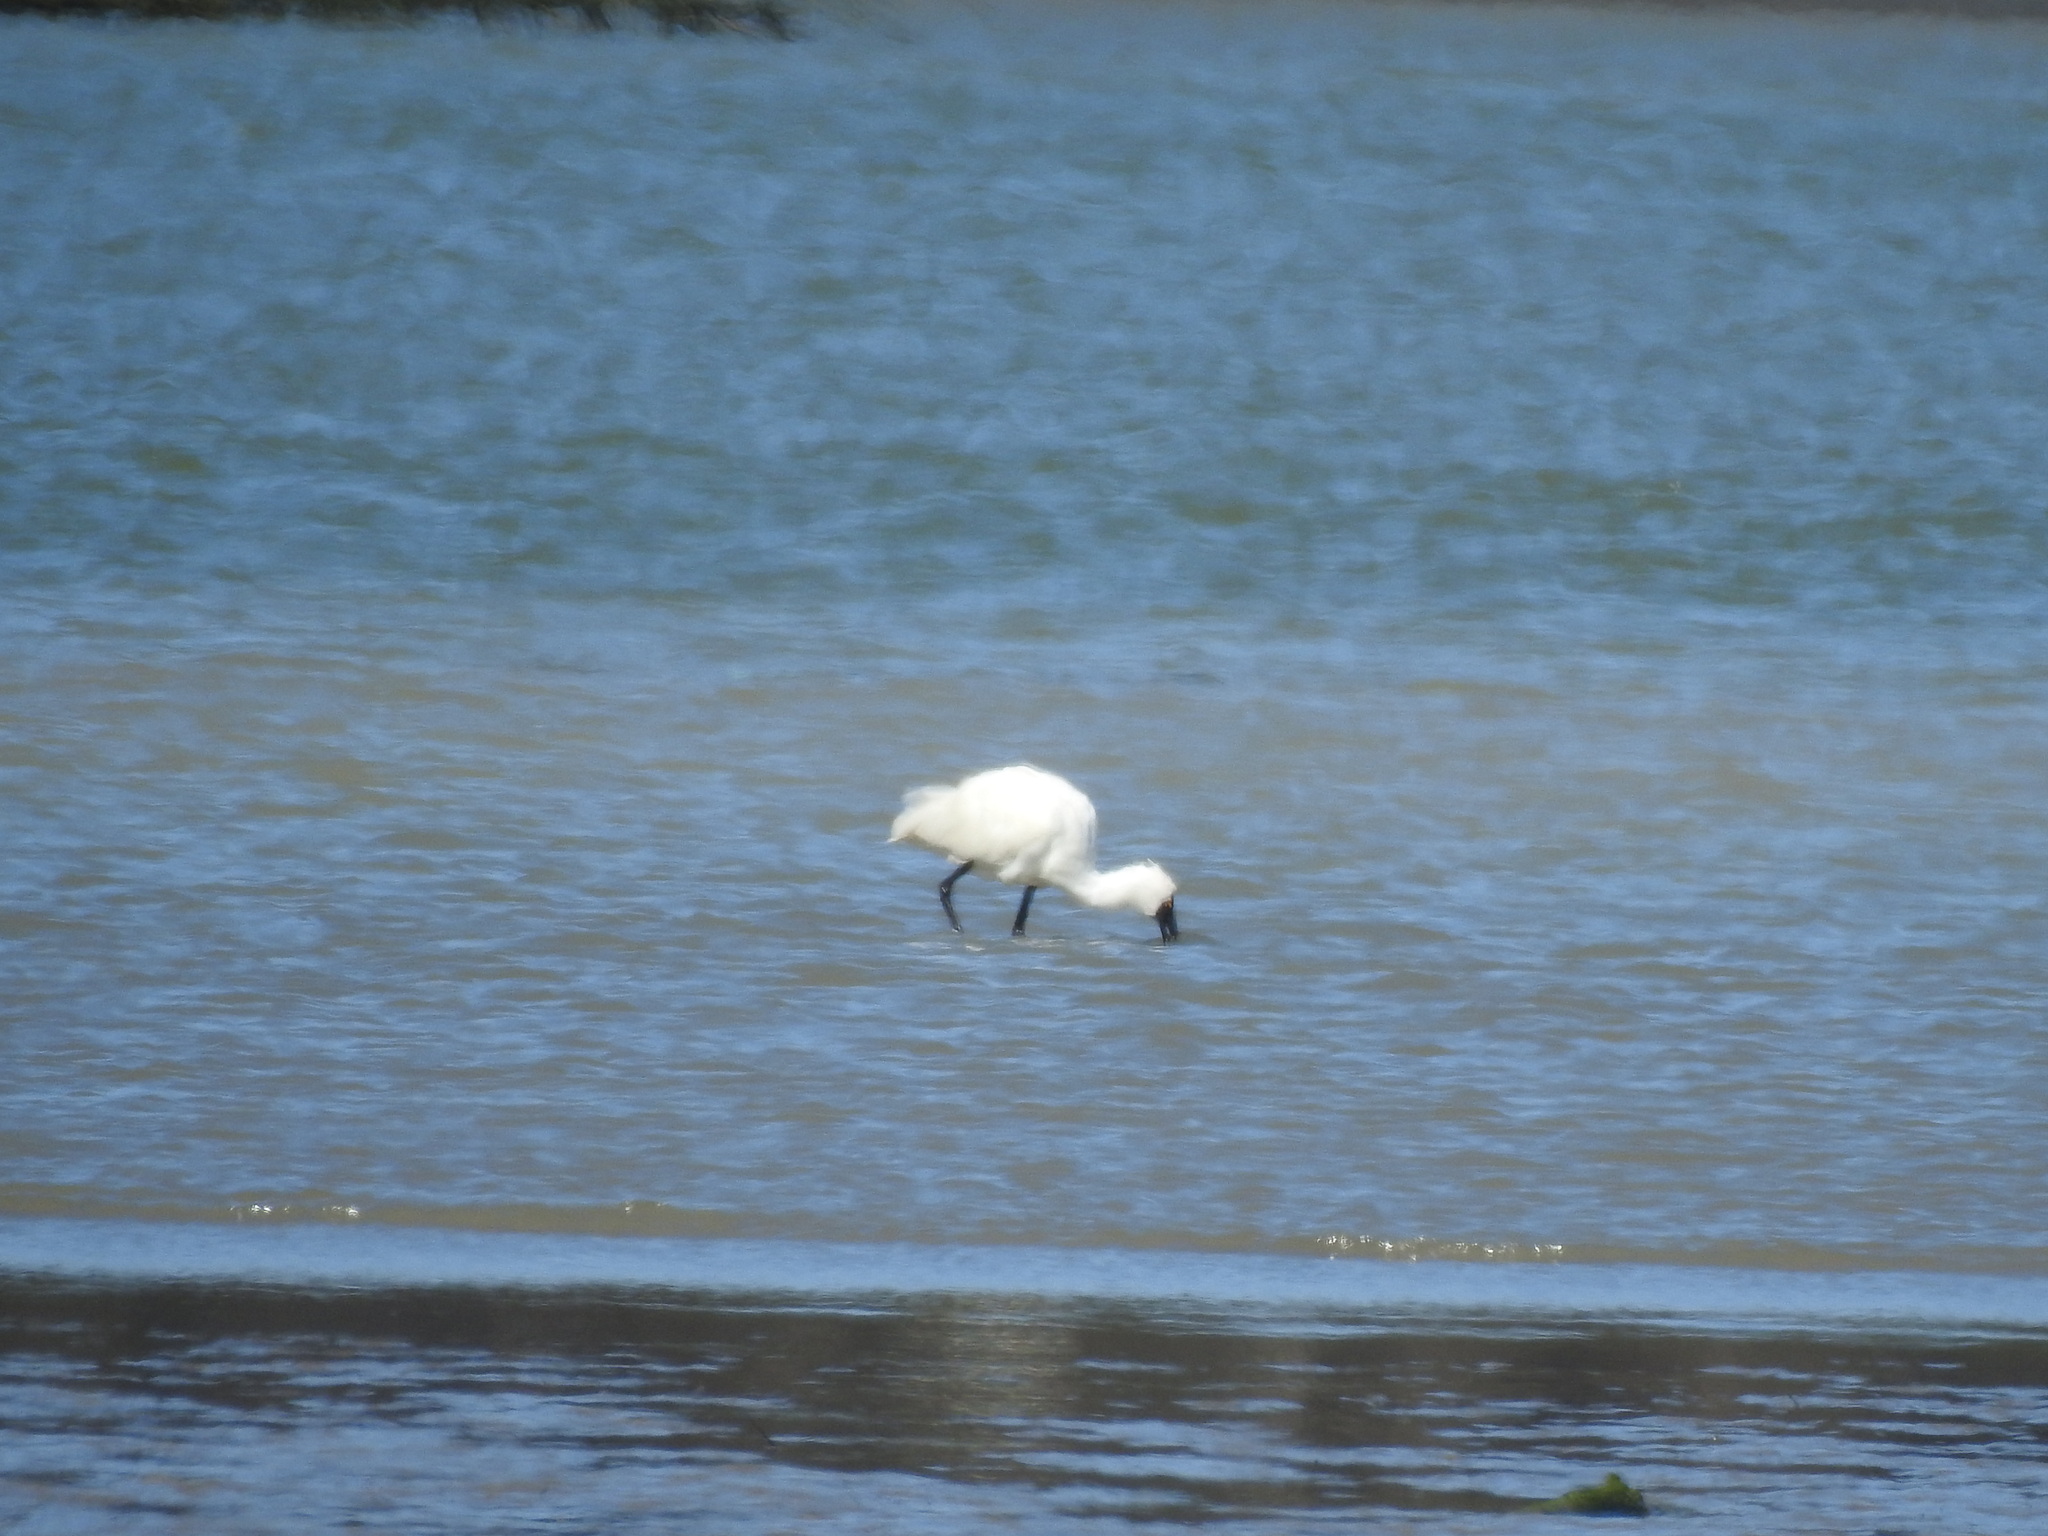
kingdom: Animalia
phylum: Chordata
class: Aves
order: Pelecaniformes
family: Threskiornithidae
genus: Platalea
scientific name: Platalea regia
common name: Royal spoonbill
